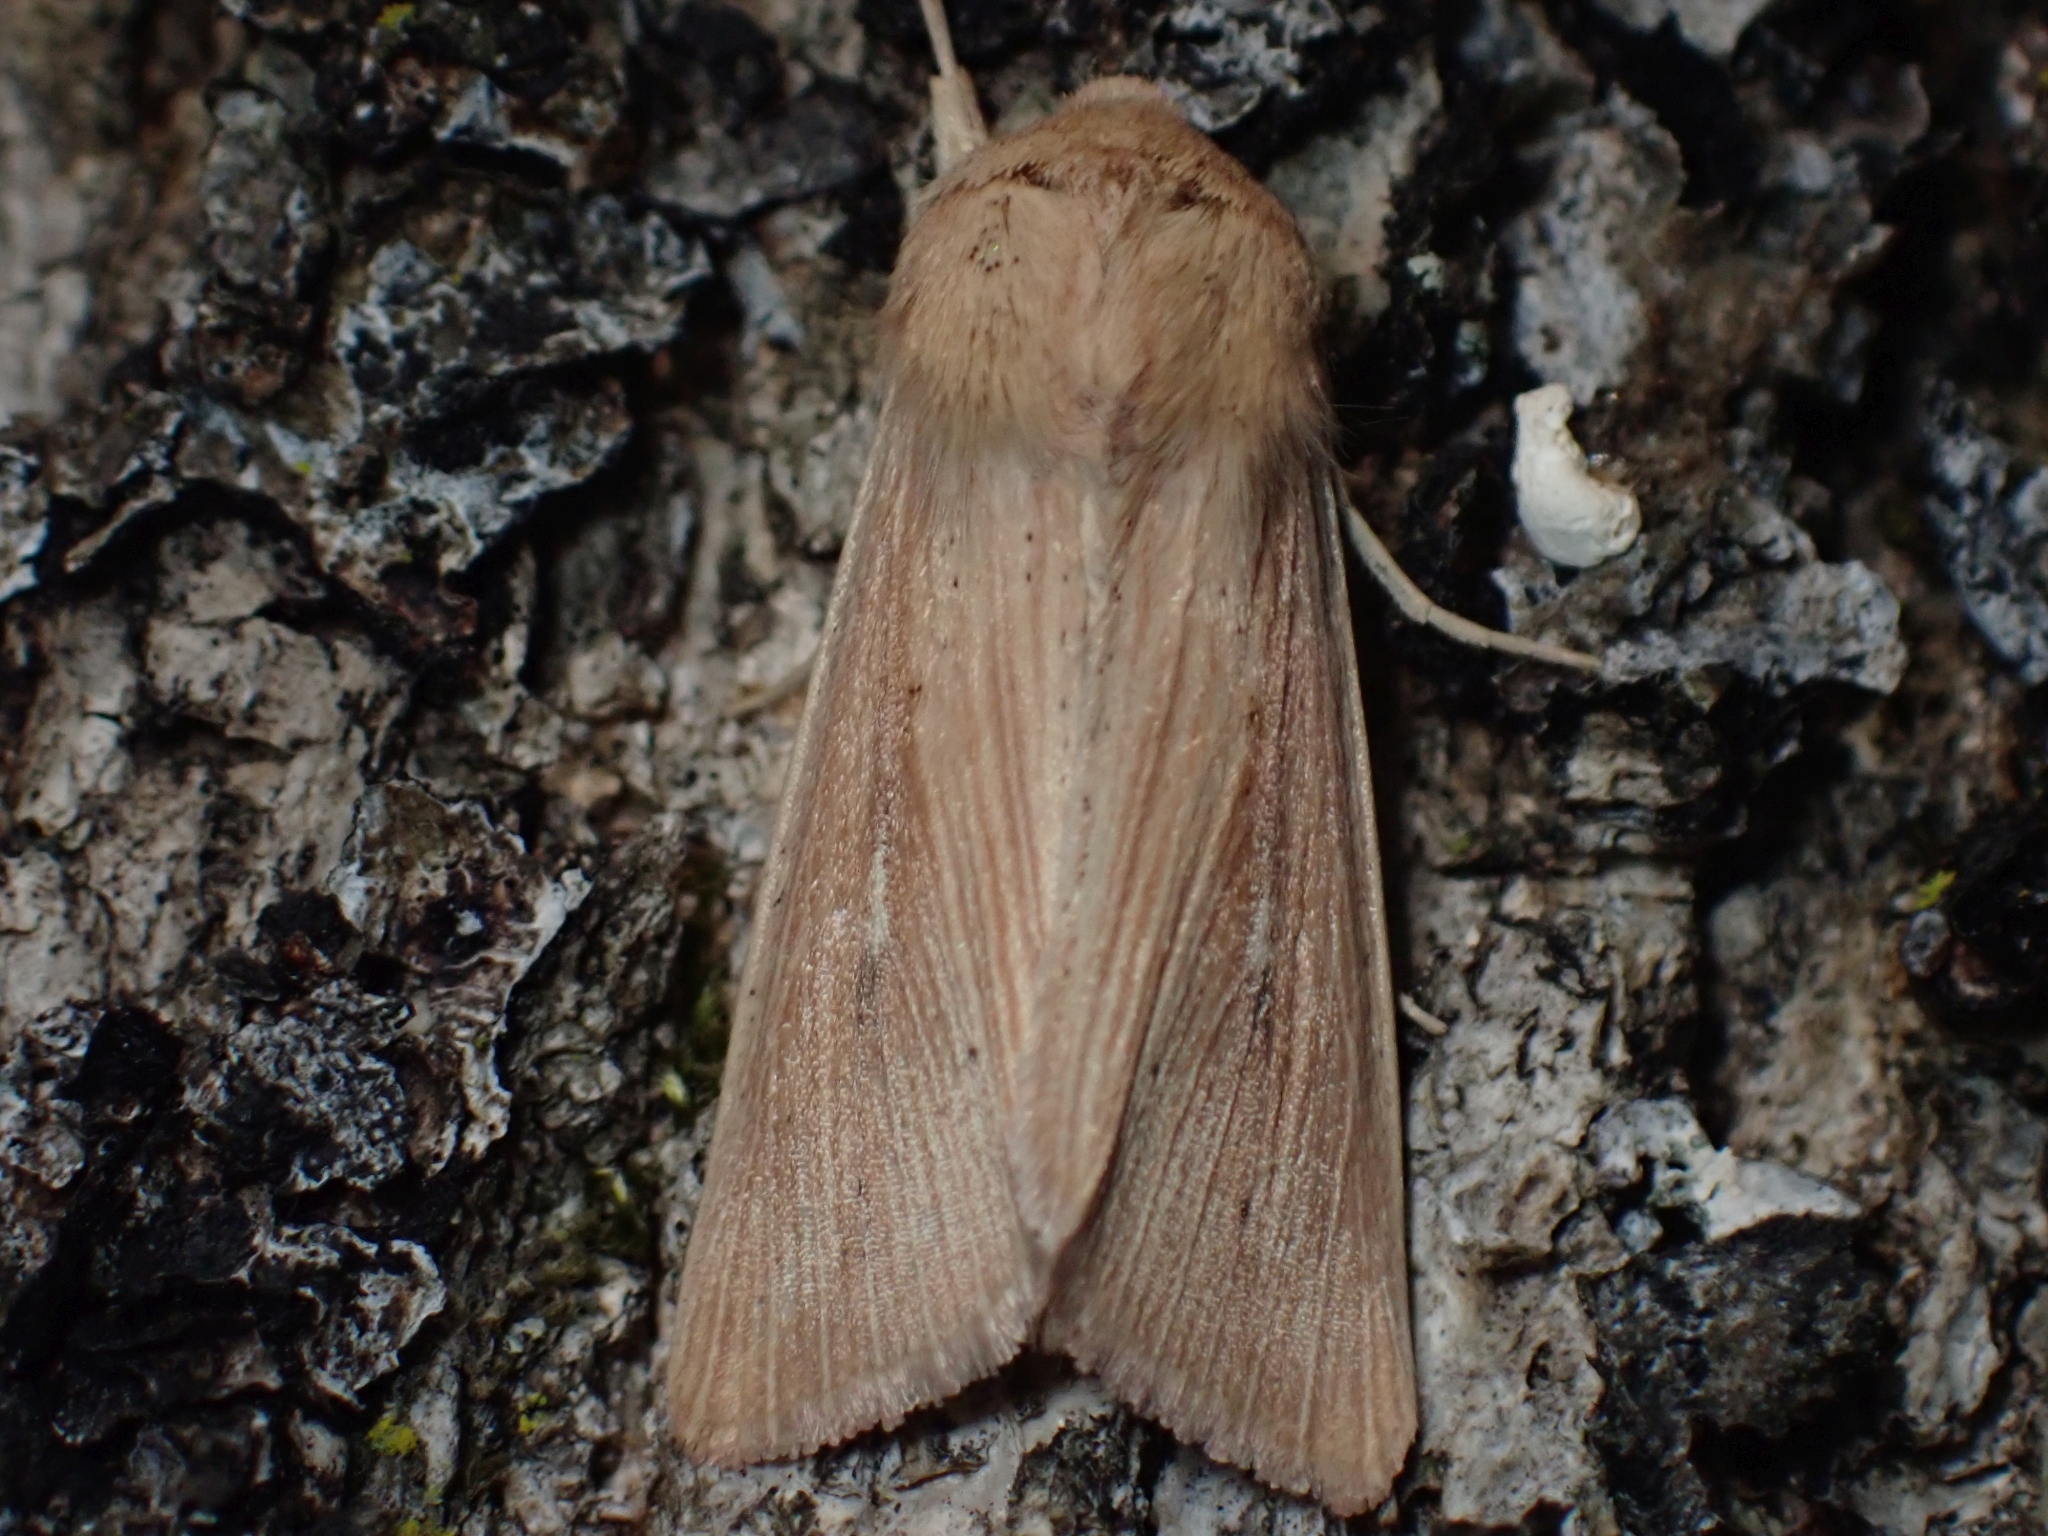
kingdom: Animalia
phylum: Arthropoda
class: Insecta
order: Lepidoptera
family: Noctuidae
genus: Leucania
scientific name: Leucania farcta
